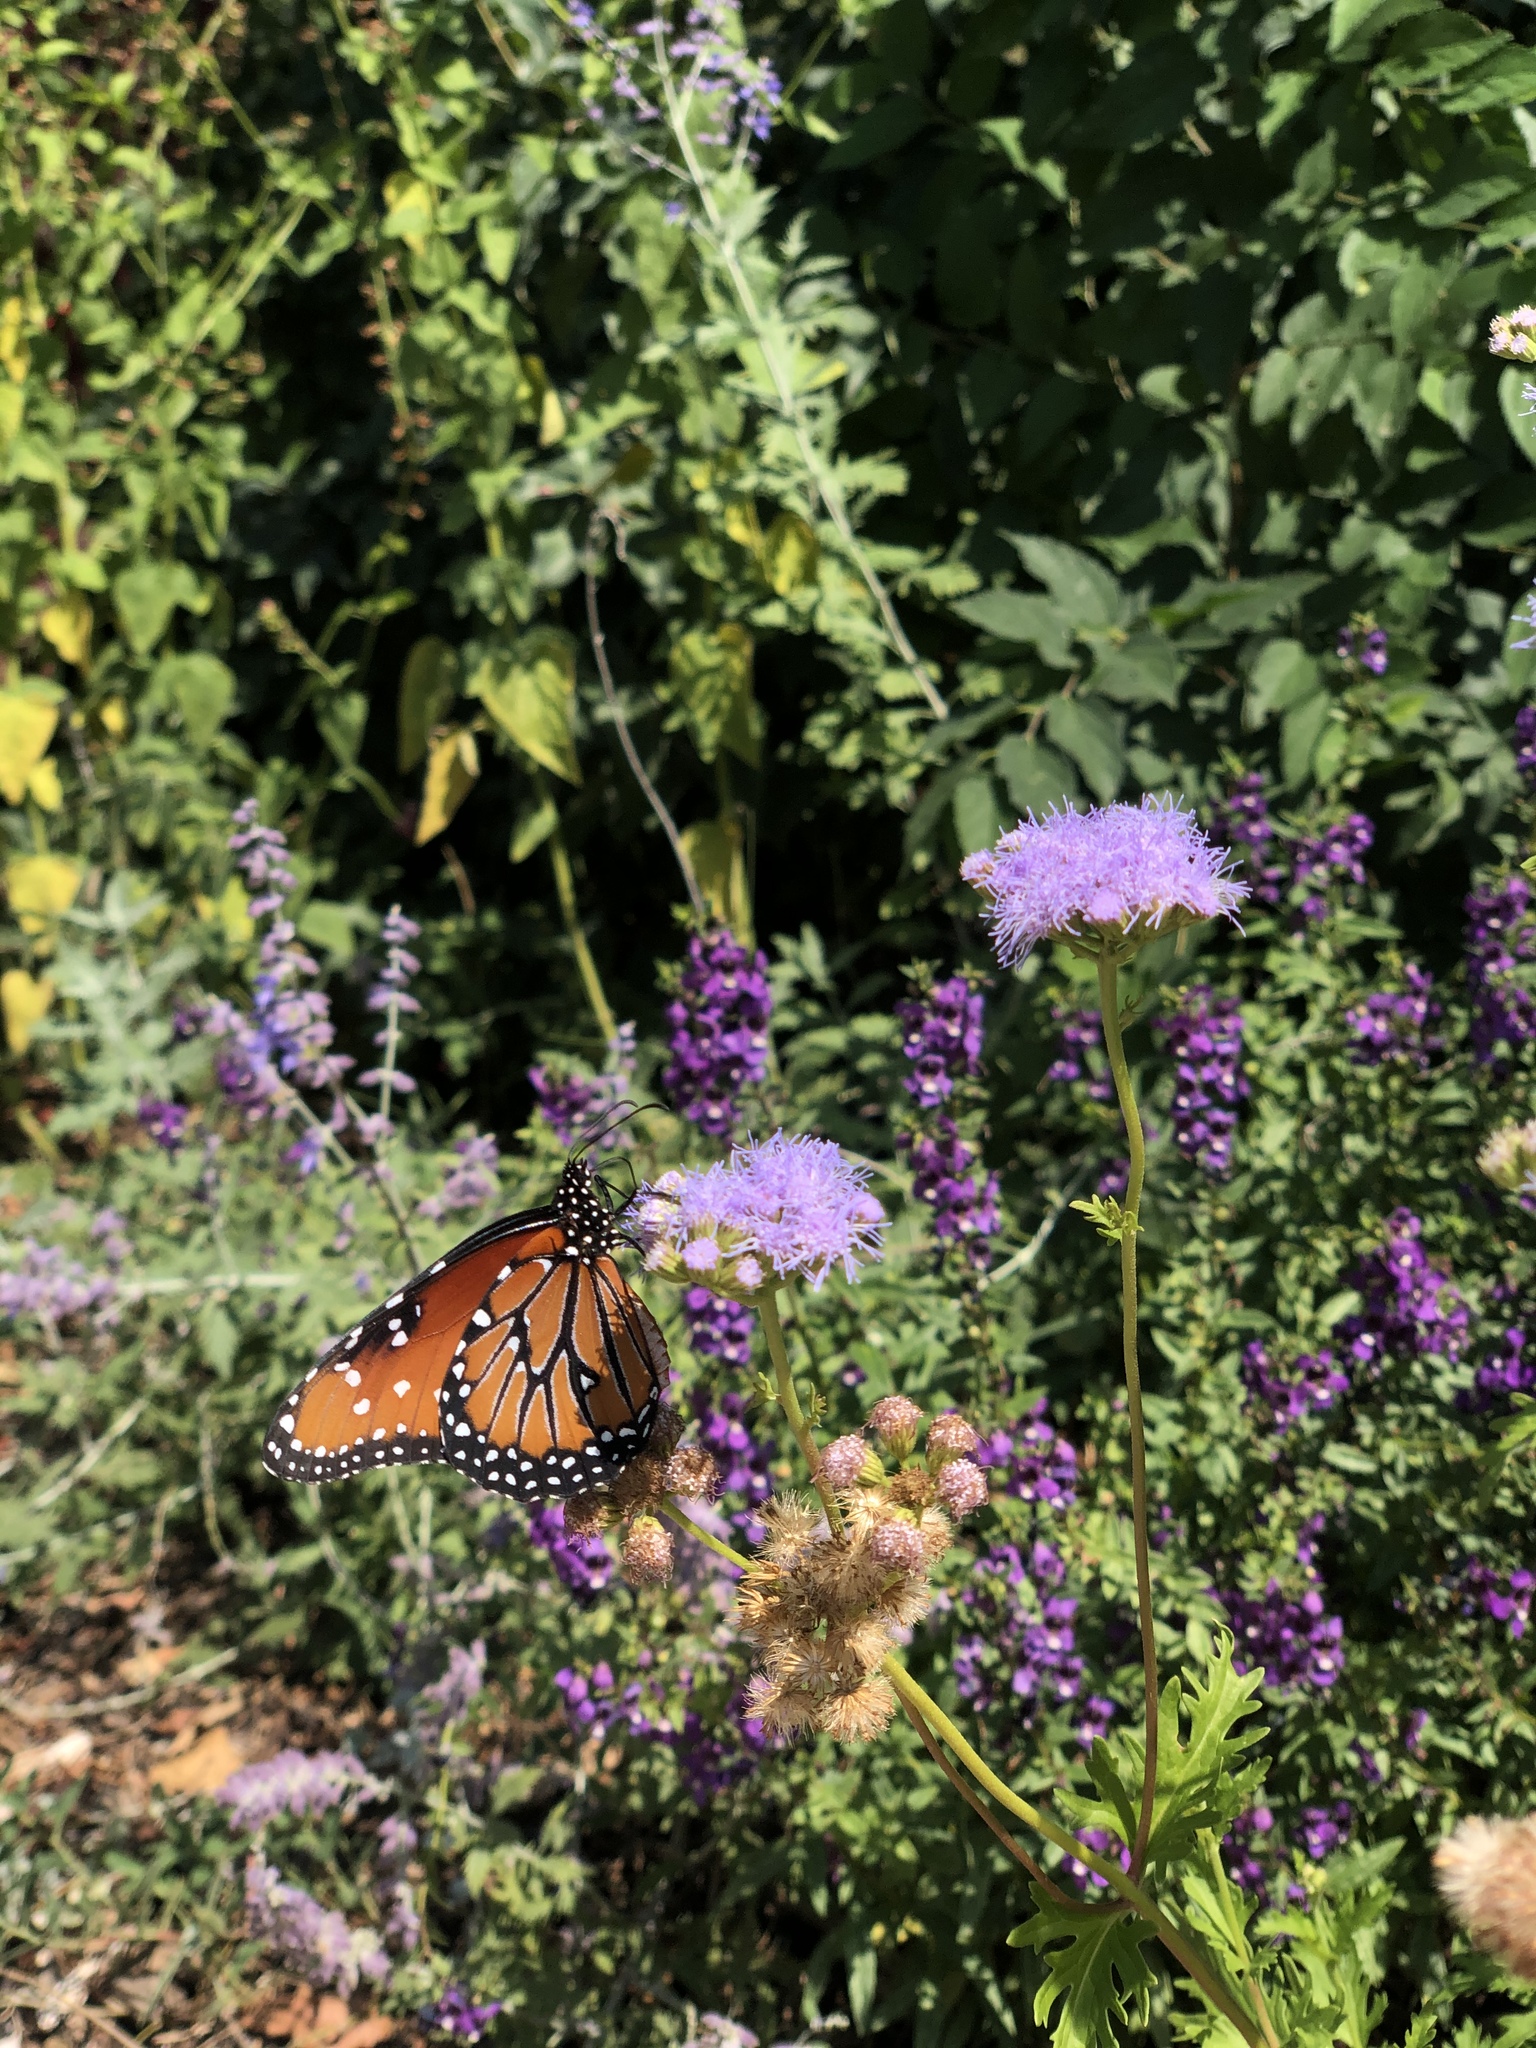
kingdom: Animalia
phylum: Arthropoda
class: Insecta
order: Lepidoptera
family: Nymphalidae
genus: Danaus
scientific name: Danaus gilippus
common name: Queen
